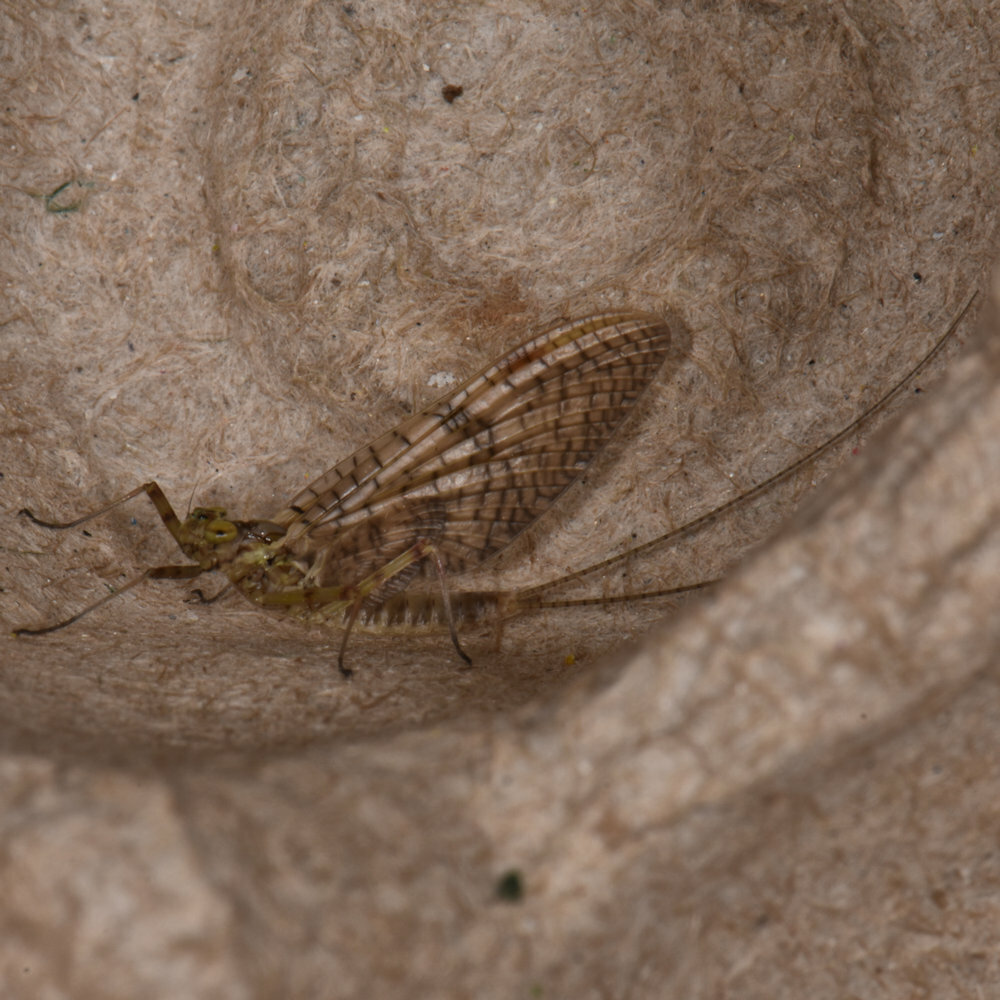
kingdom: Animalia
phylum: Arthropoda
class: Insecta
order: Ephemeroptera
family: Heptageniidae
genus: Stenonema
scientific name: Stenonema femoratum
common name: Dark cahill
